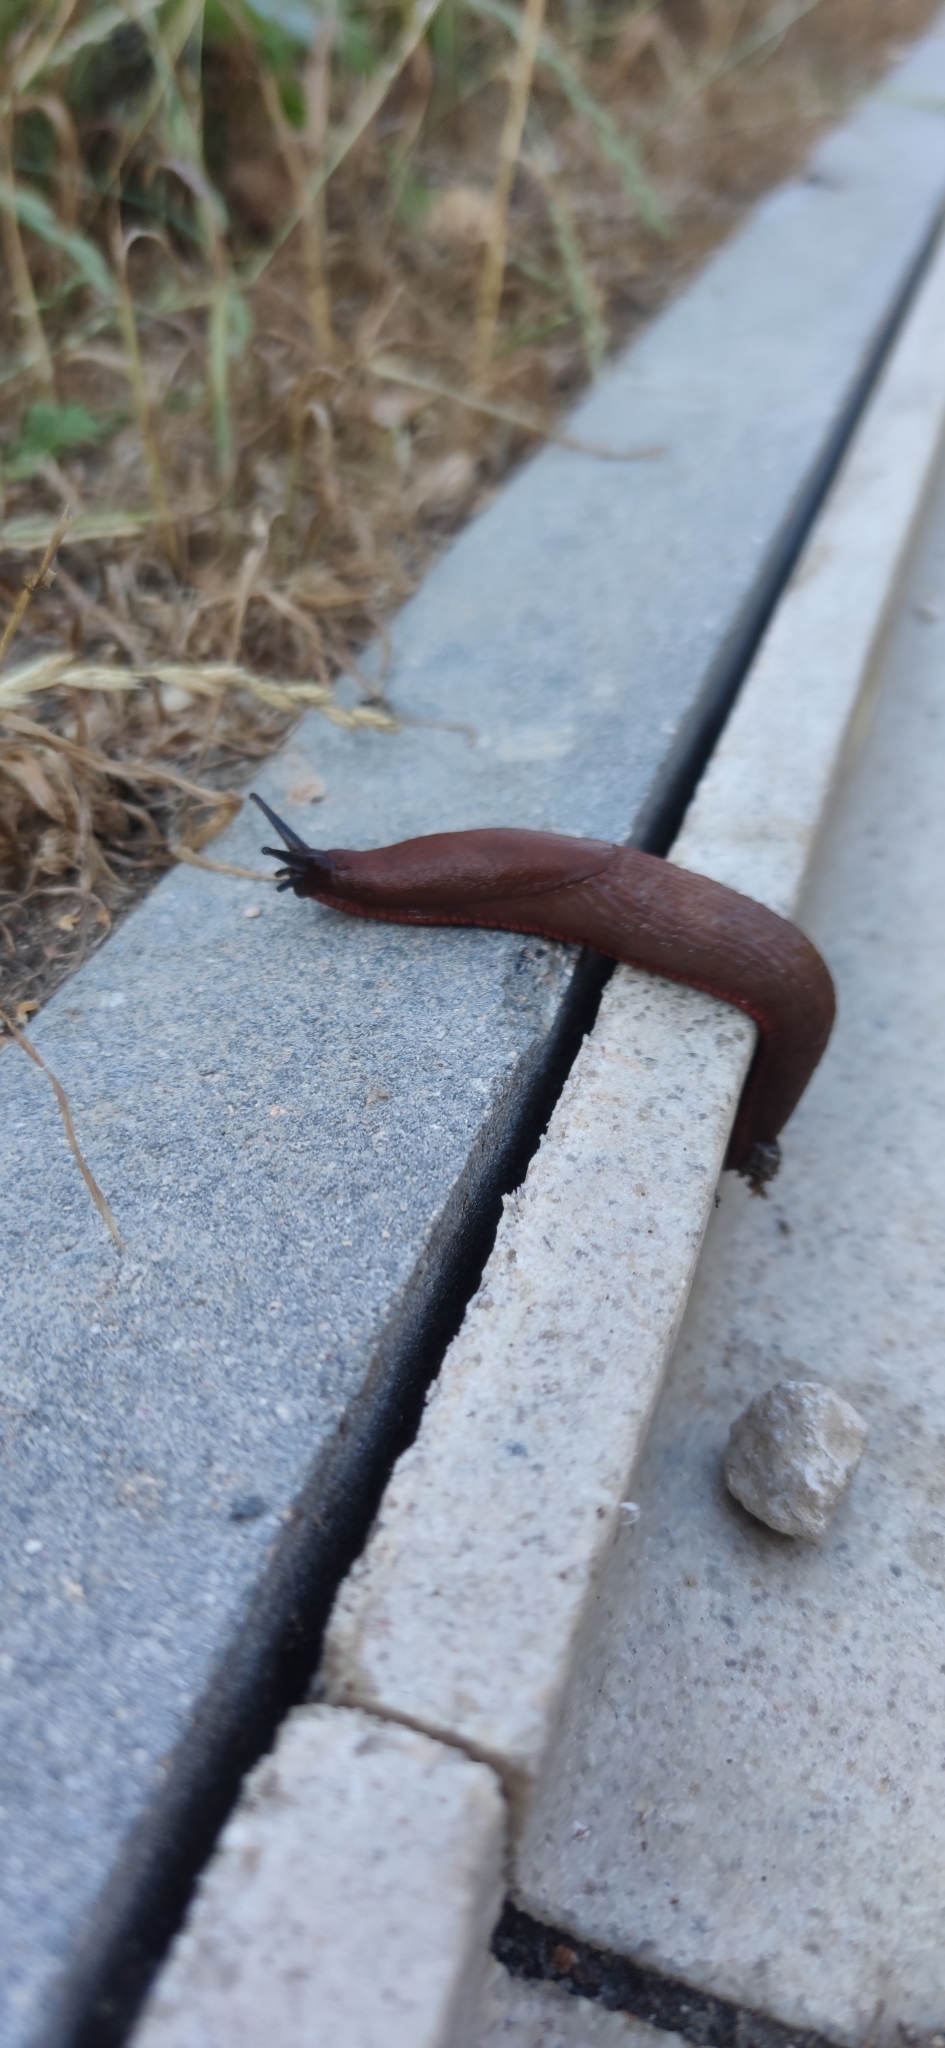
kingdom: Animalia
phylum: Mollusca
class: Gastropoda
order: Stylommatophora
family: Arionidae
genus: Arion
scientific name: Arion
